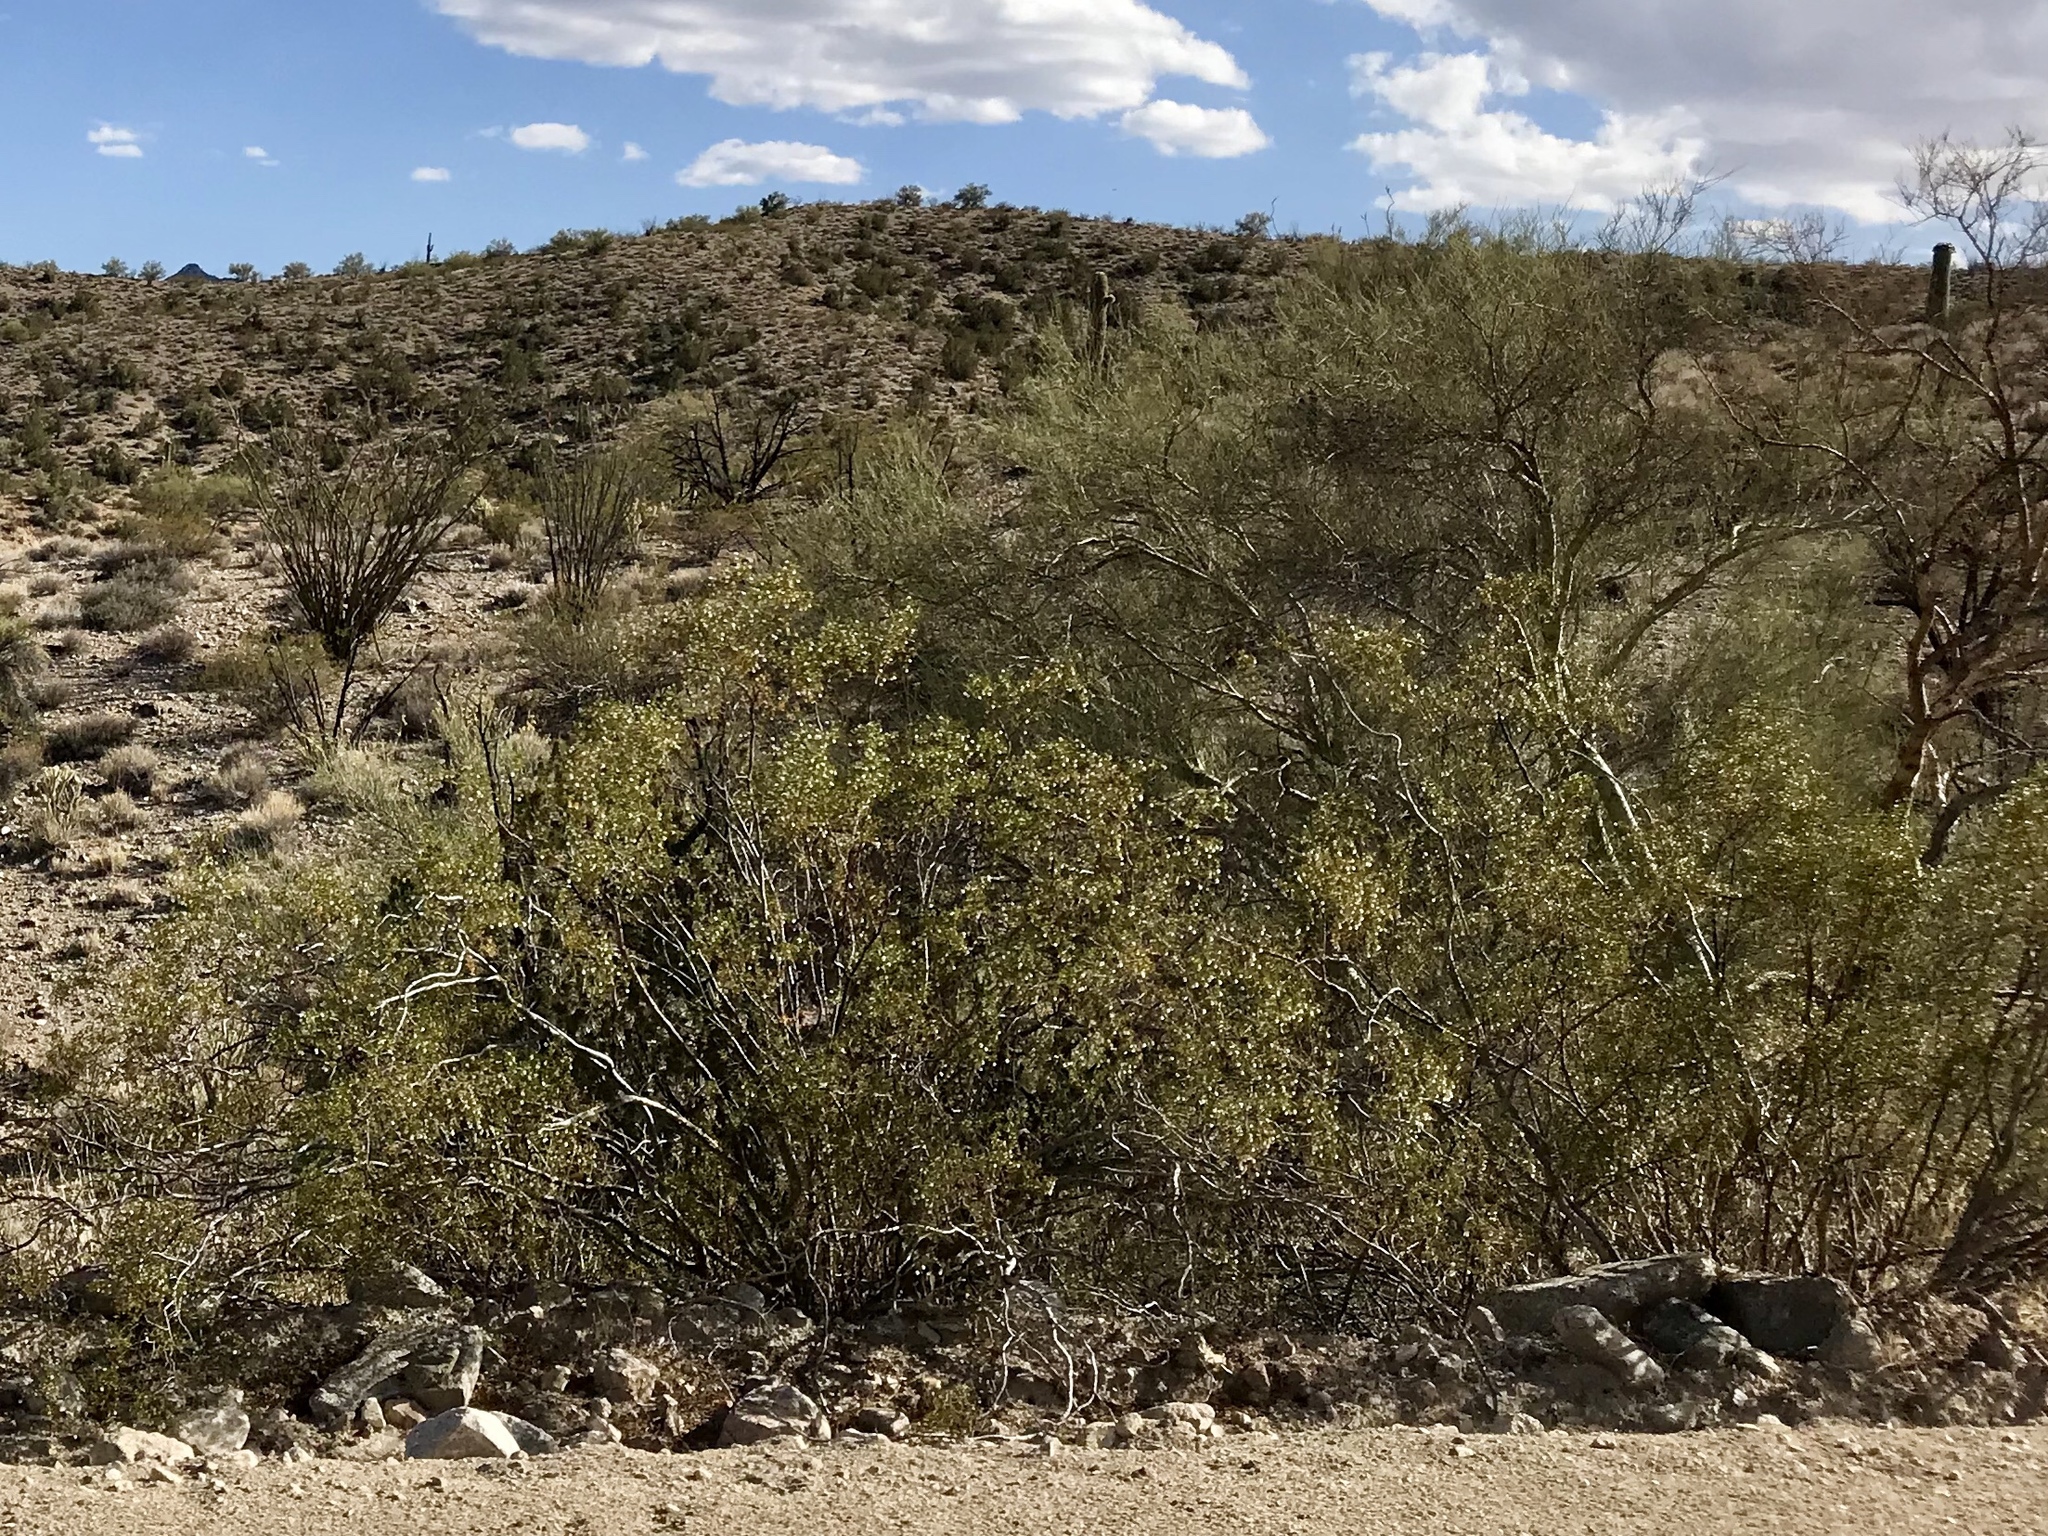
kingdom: Plantae
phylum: Tracheophyta
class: Magnoliopsida
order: Zygophyllales
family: Zygophyllaceae
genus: Larrea
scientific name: Larrea tridentata
